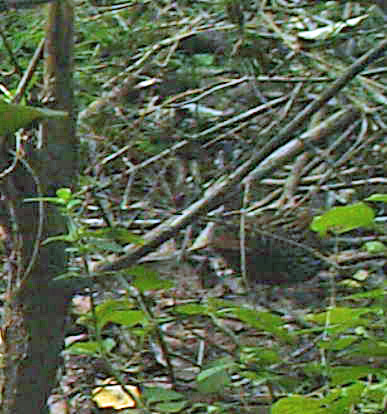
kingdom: Animalia
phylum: Chordata
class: Aves
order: Gruiformes
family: Rallidae
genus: Sarothrura
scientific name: Sarothrura elegans
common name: Buff-spotted flufftail
